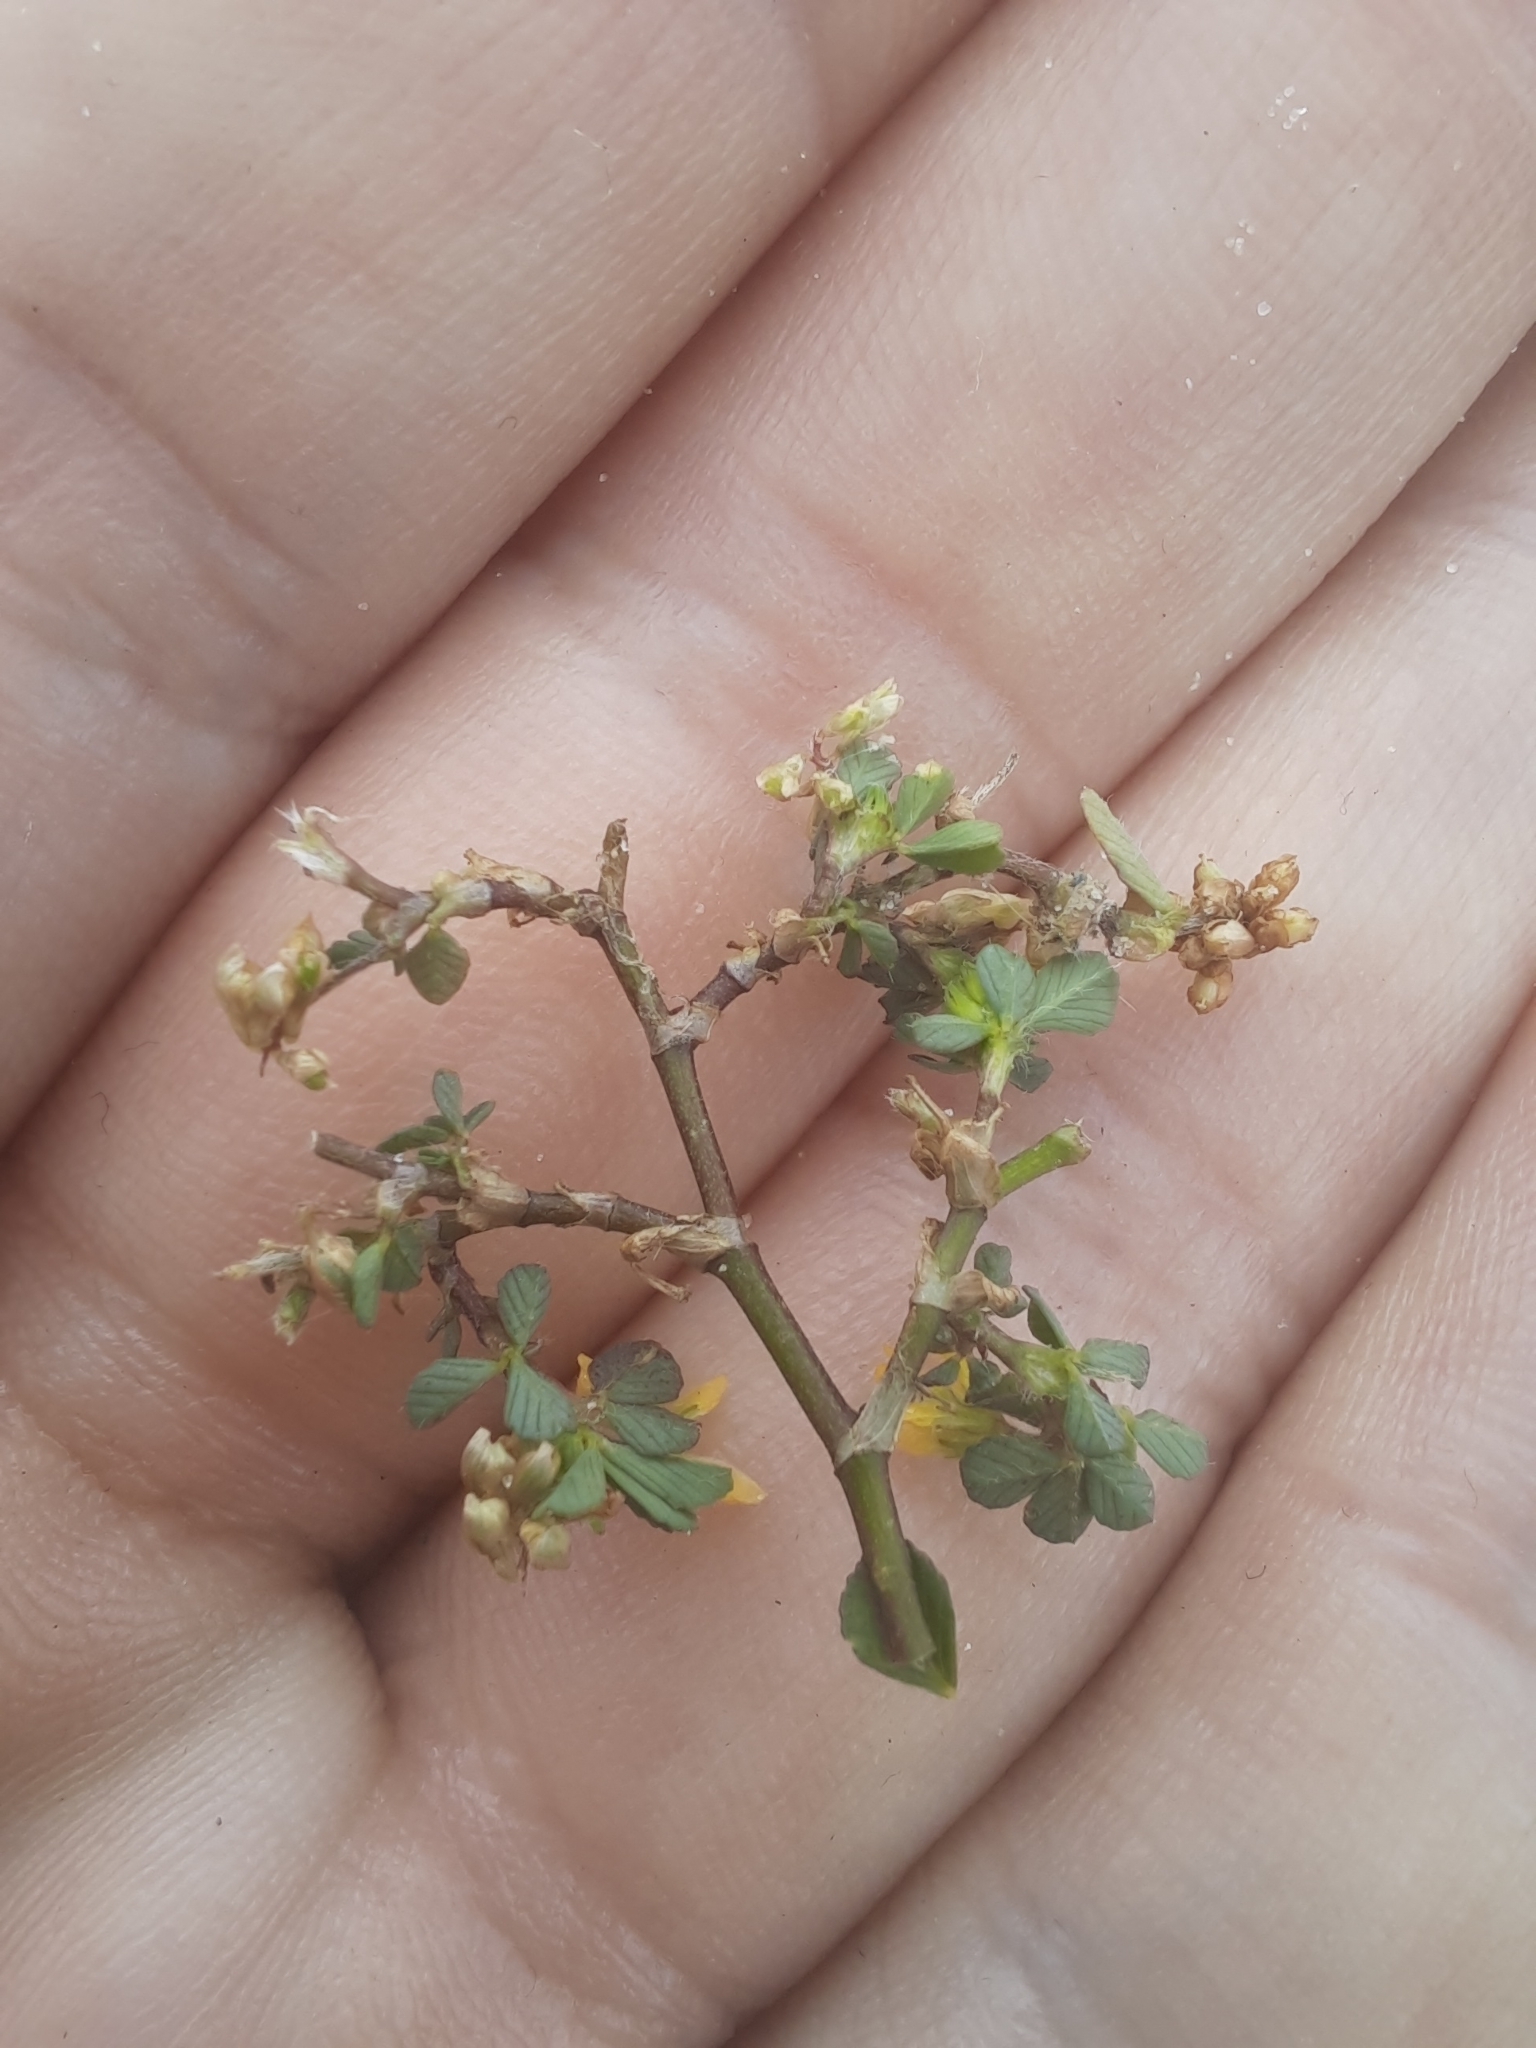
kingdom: Plantae
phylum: Tracheophyta
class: Magnoliopsida
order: Fabales
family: Fabaceae
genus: Trifolium
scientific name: Trifolium dubium
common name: Suckling clover
